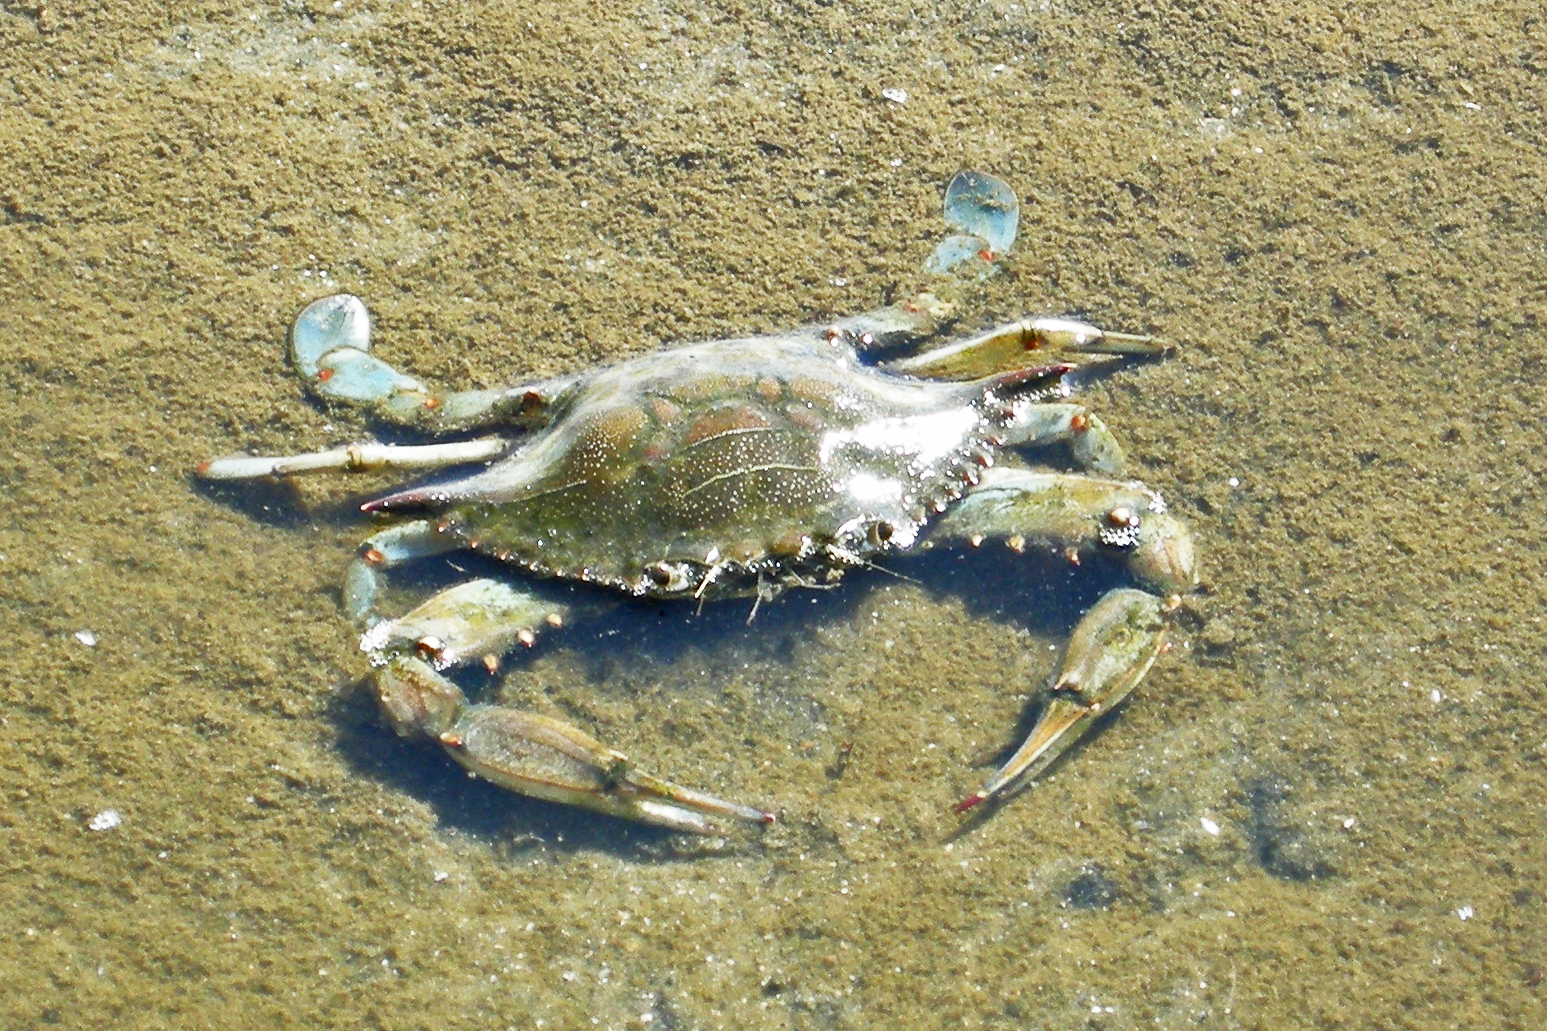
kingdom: Animalia
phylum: Arthropoda
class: Malacostraca
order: Decapoda
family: Portunidae
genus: Callinectes
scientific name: Callinectes sapidus
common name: Blue crab
